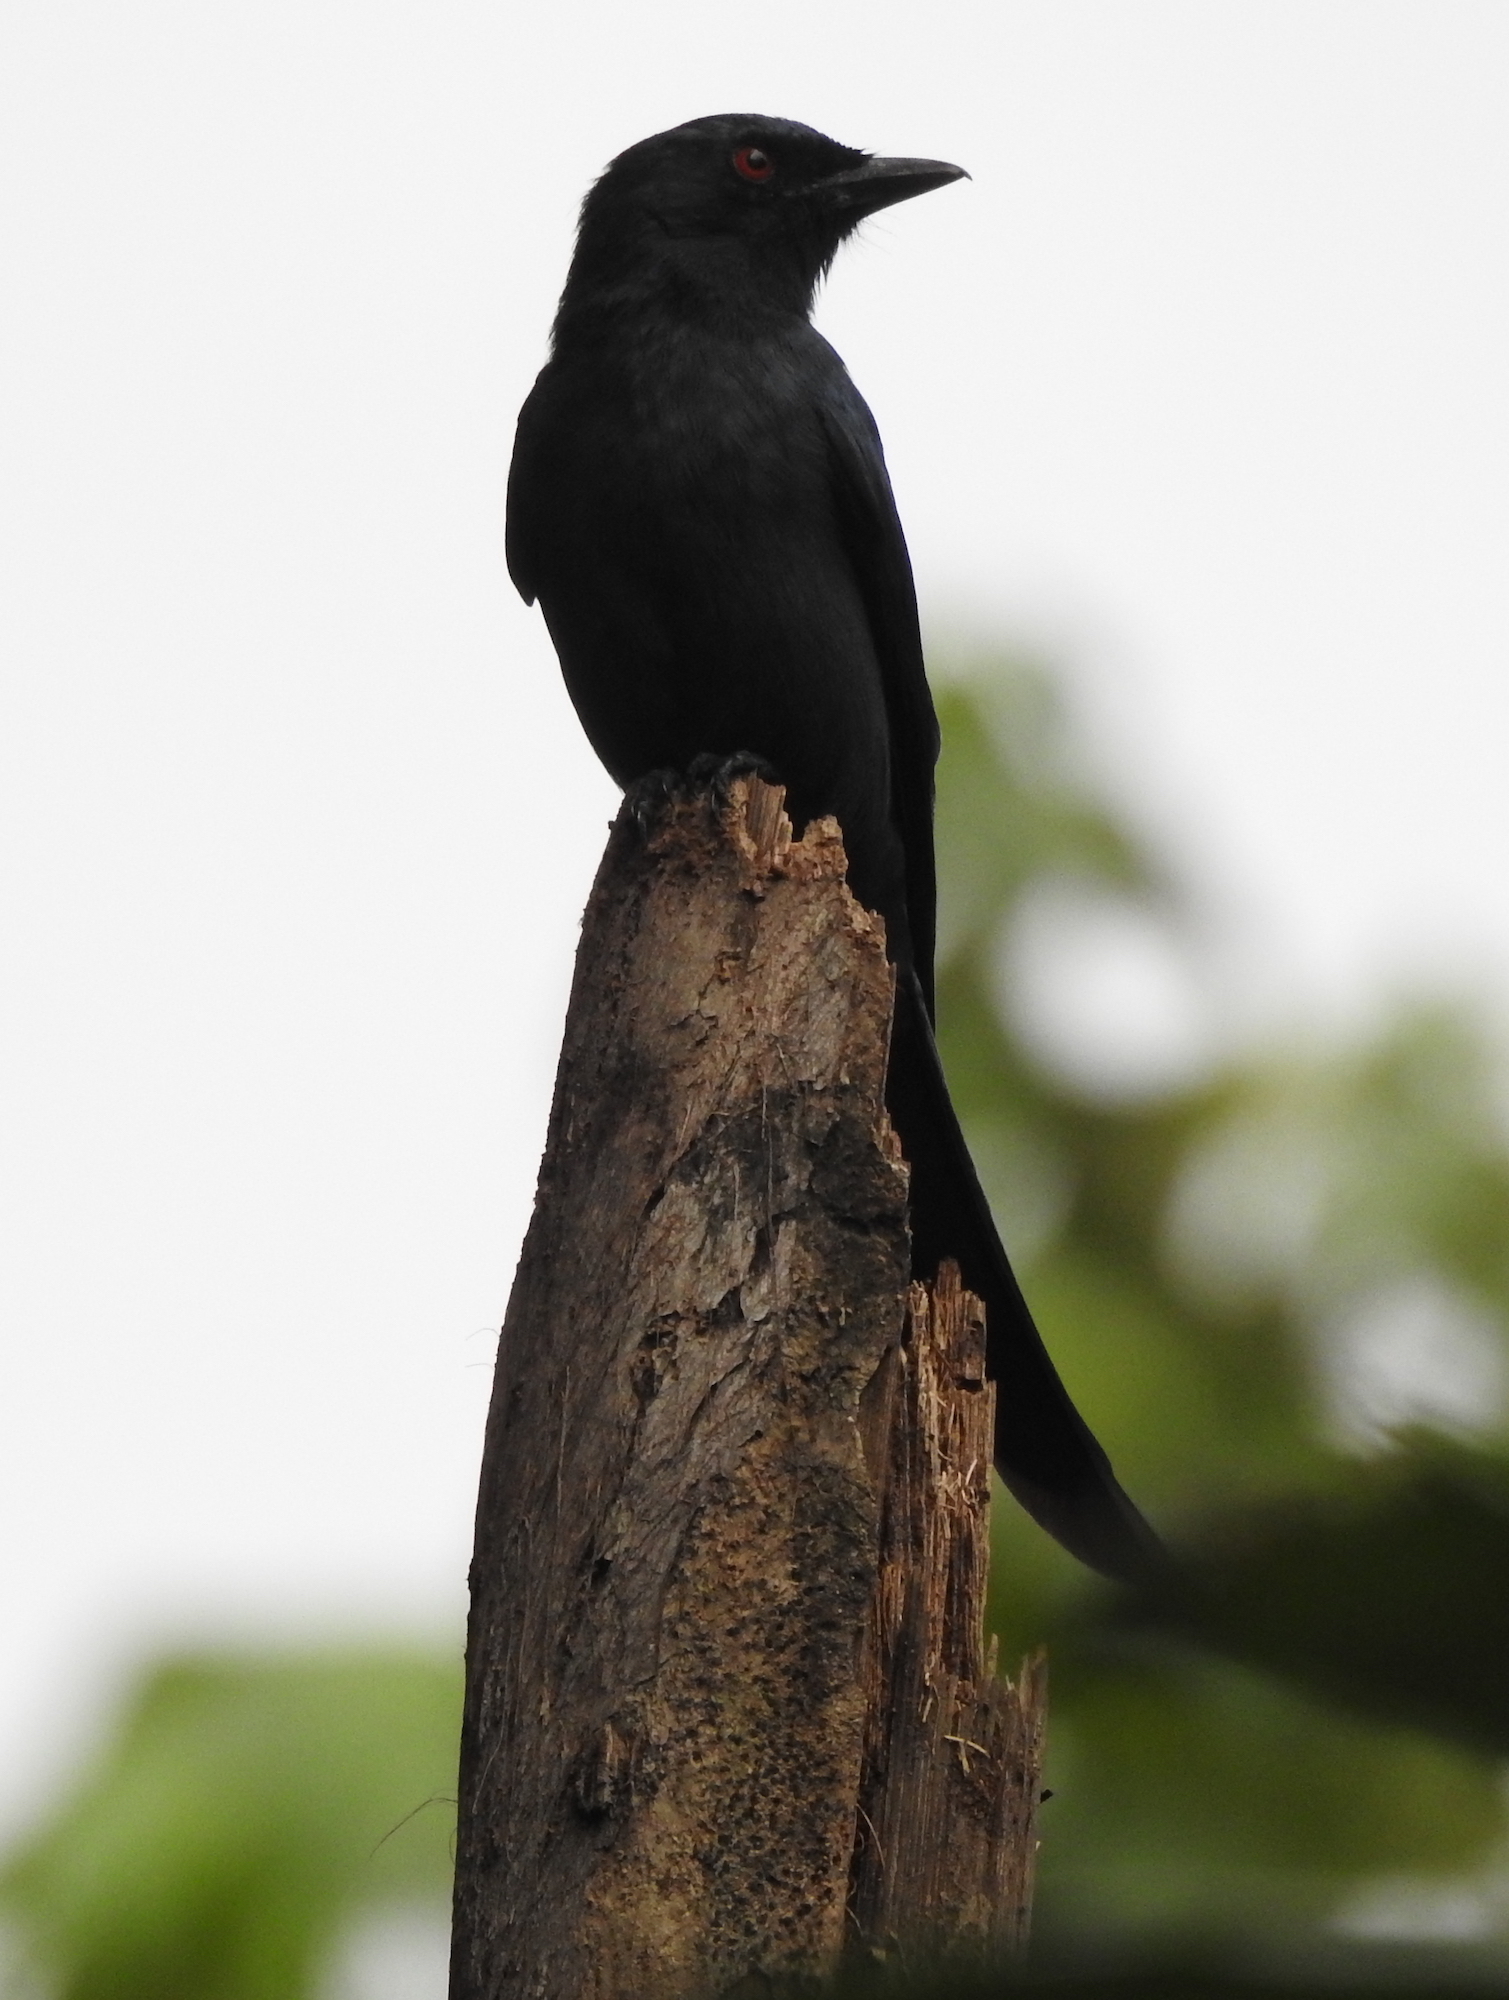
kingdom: Animalia
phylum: Chordata
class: Aves
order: Passeriformes
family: Dicruridae
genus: Dicrurus
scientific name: Dicrurus leucophaeus
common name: Ashy drongo
